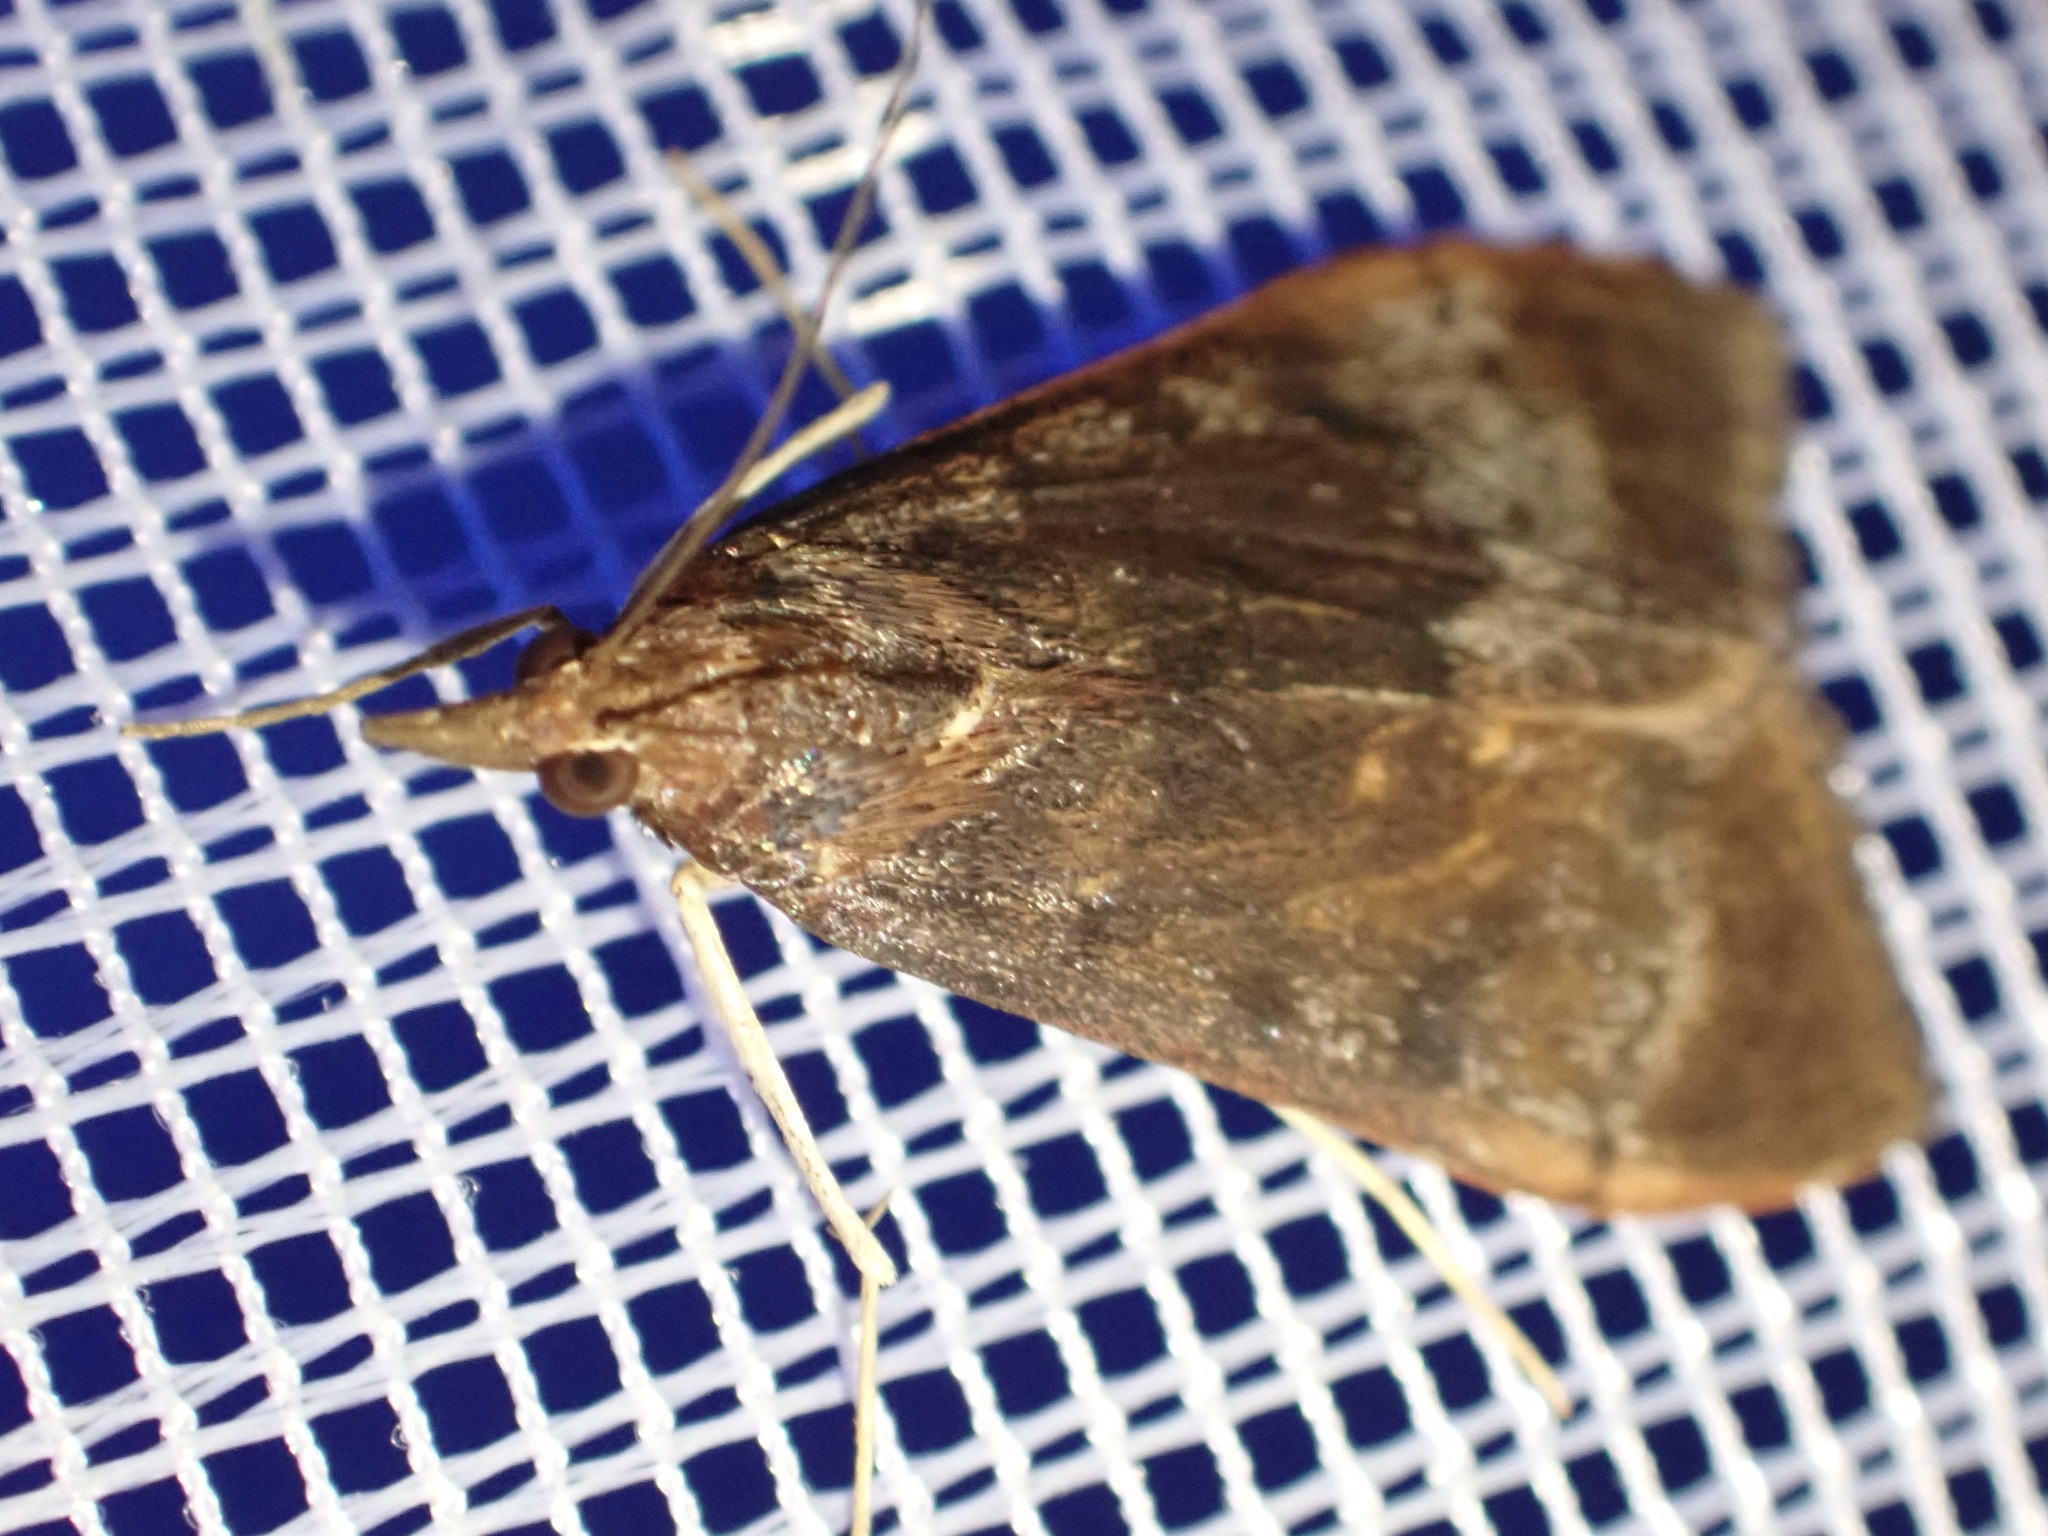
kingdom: Animalia
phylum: Arthropoda
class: Insecta
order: Lepidoptera
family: Crambidae
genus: Uresiphita
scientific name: Uresiphita gilvata
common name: Yellow-underwing pearl
